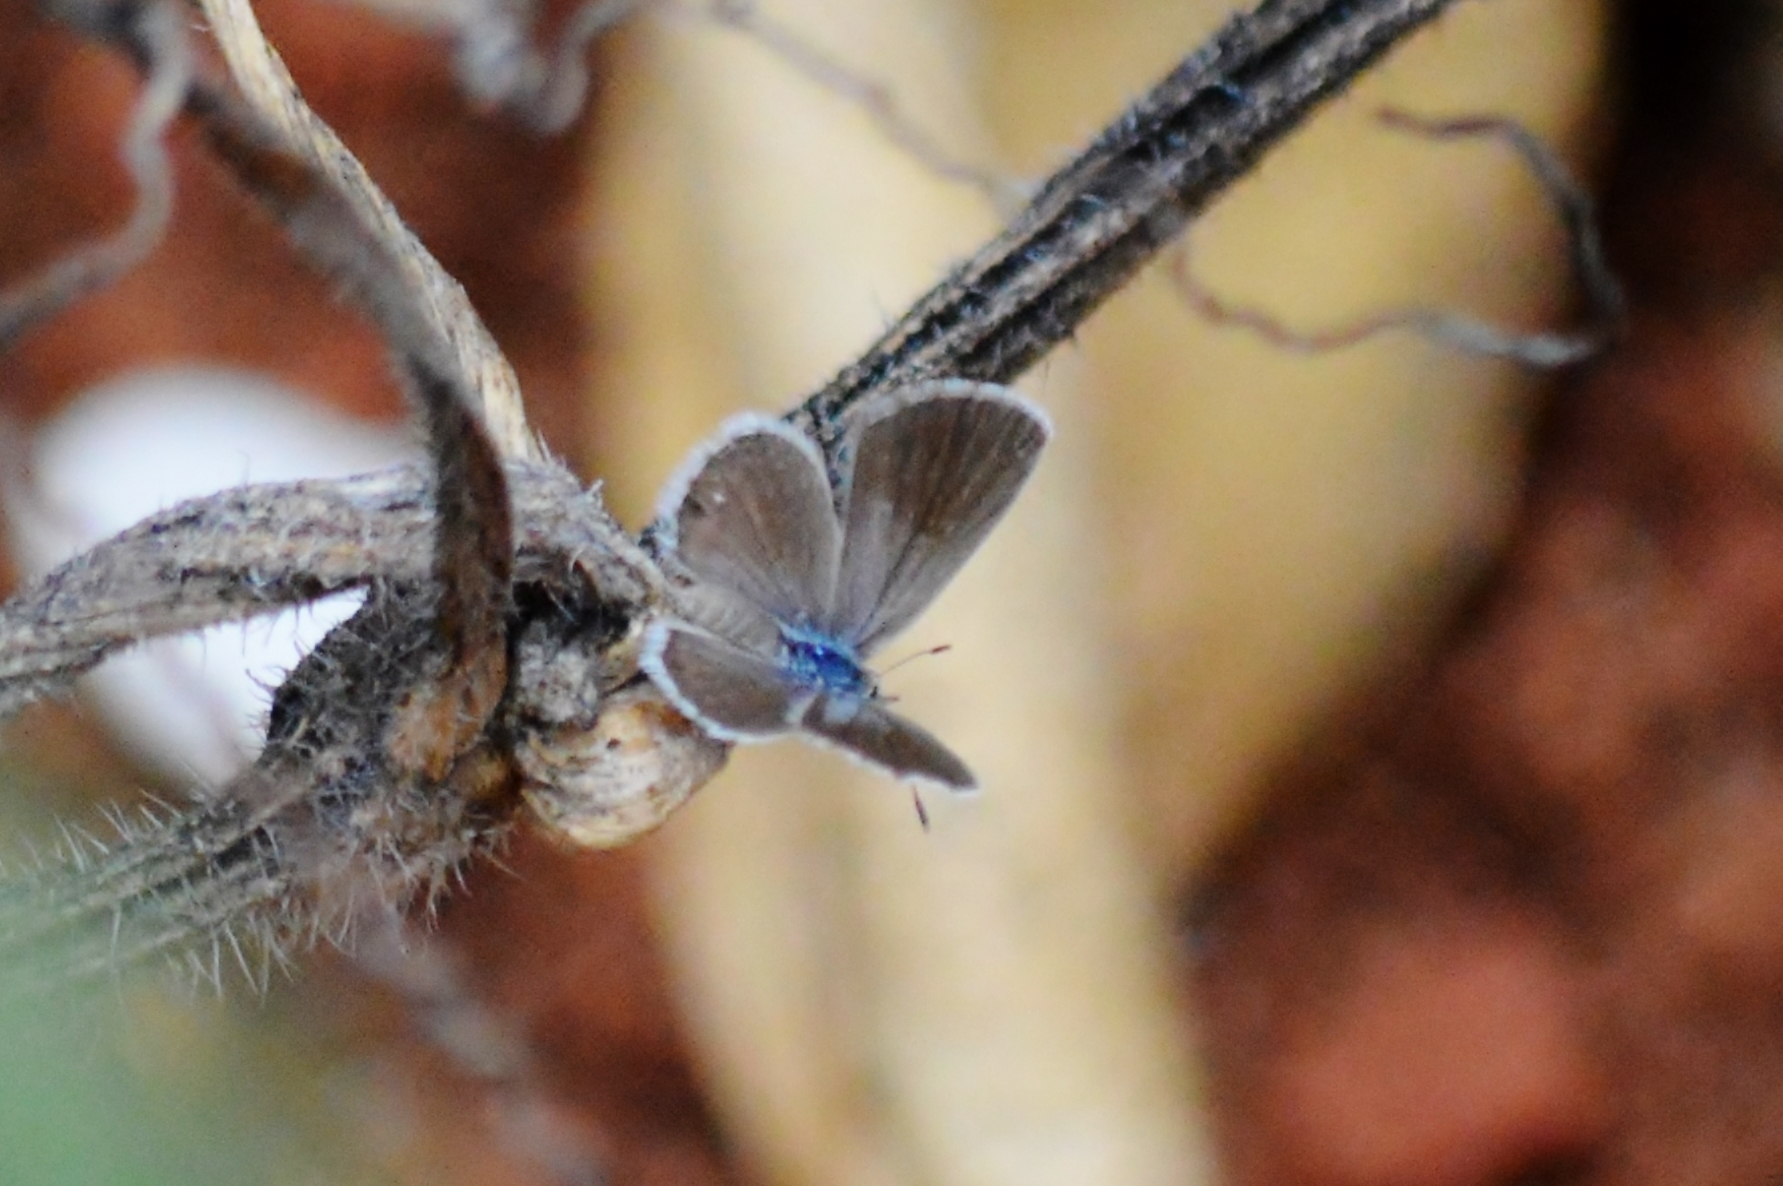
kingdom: Animalia
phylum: Arthropoda
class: Insecta
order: Lepidoptera
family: Lycaenidae
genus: Hemiargus
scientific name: Hemiargus hanno
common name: Common blue
